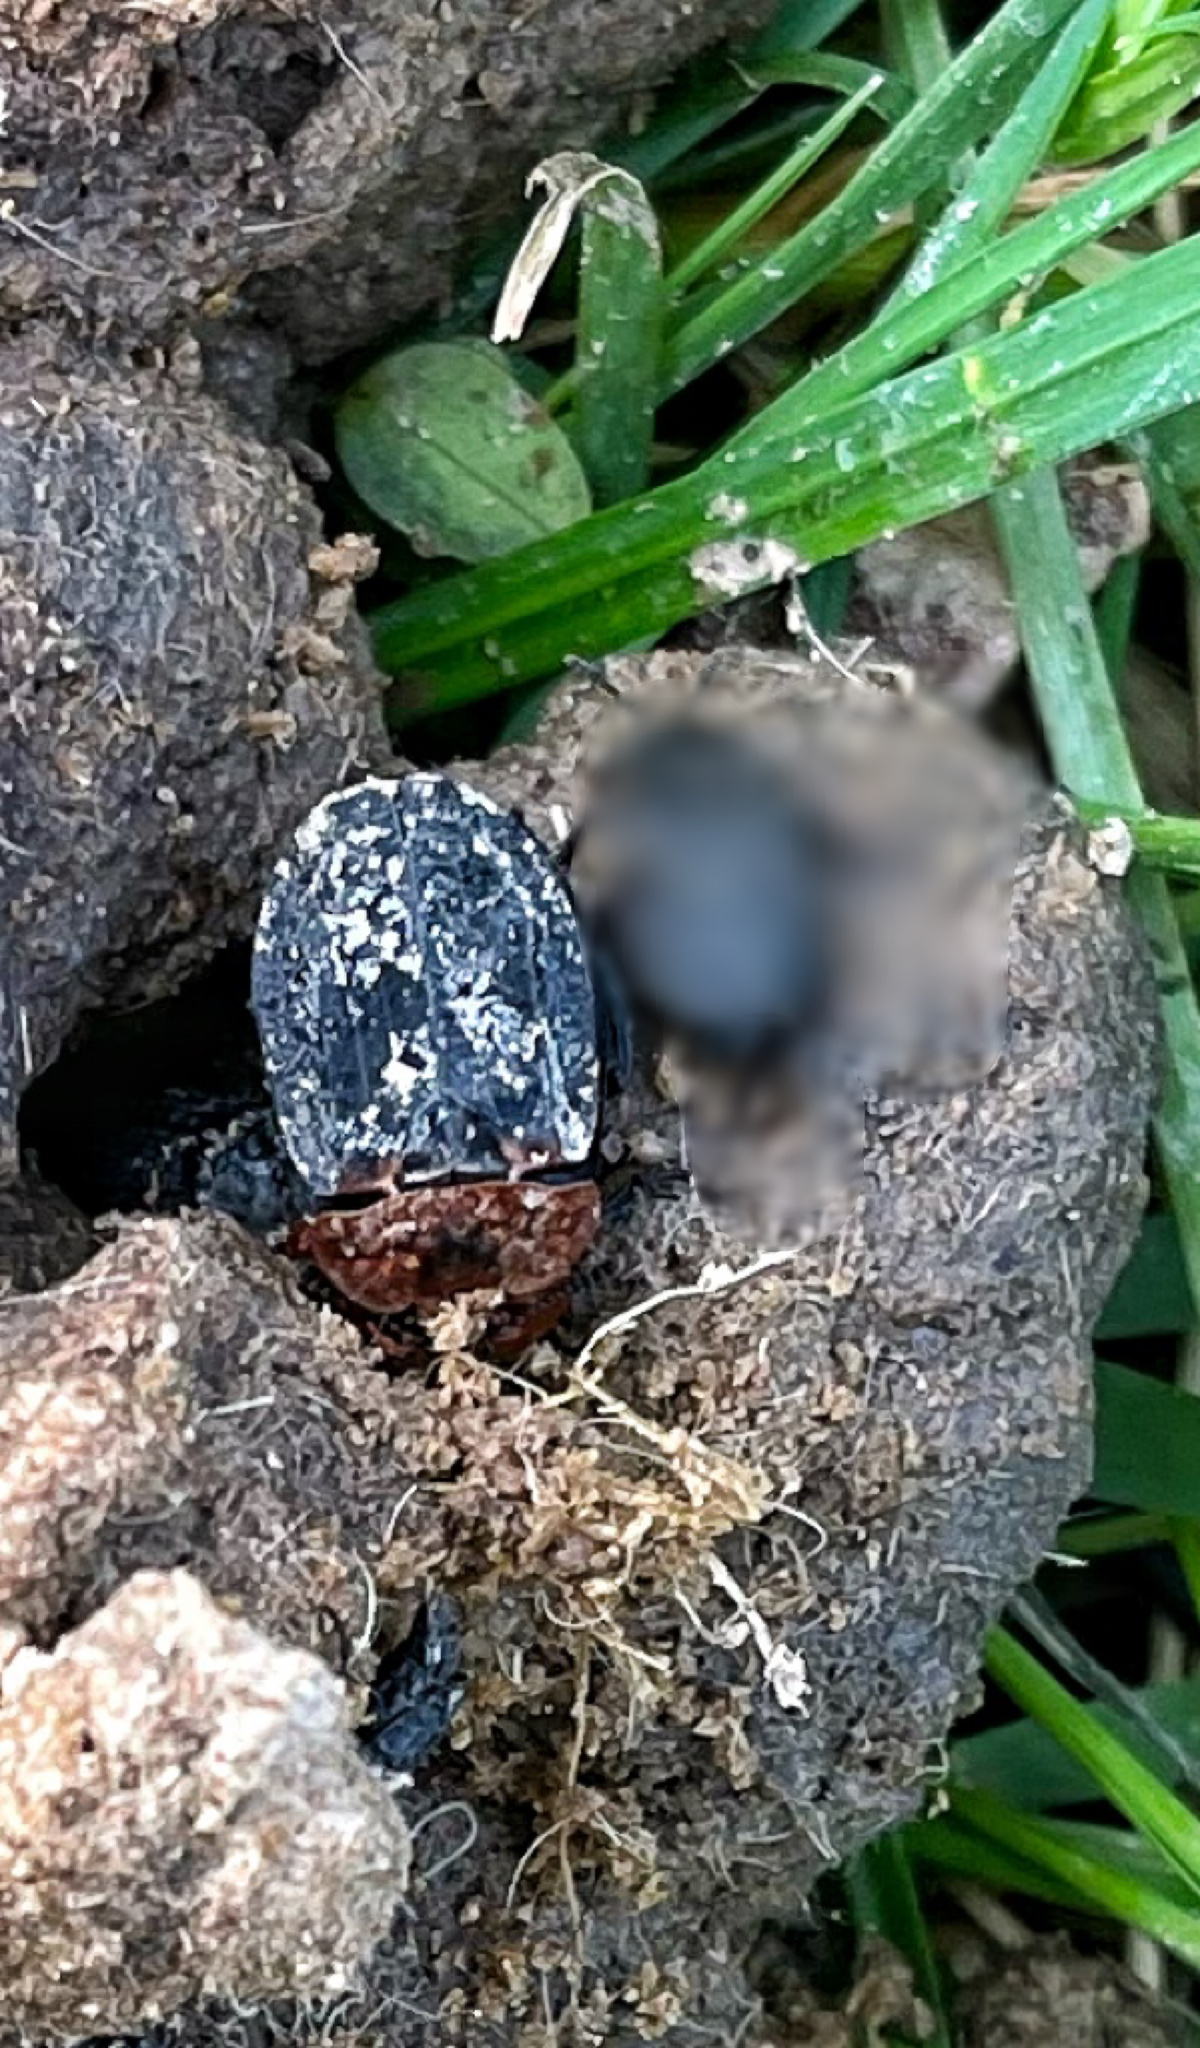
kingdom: Animalia
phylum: Arthropoda
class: Insecta
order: Coleoptera
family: Staphylinidae
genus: Oiceoptoma
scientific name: Oiceoptoma thoracicum
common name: Red-breasted carrion beetle
